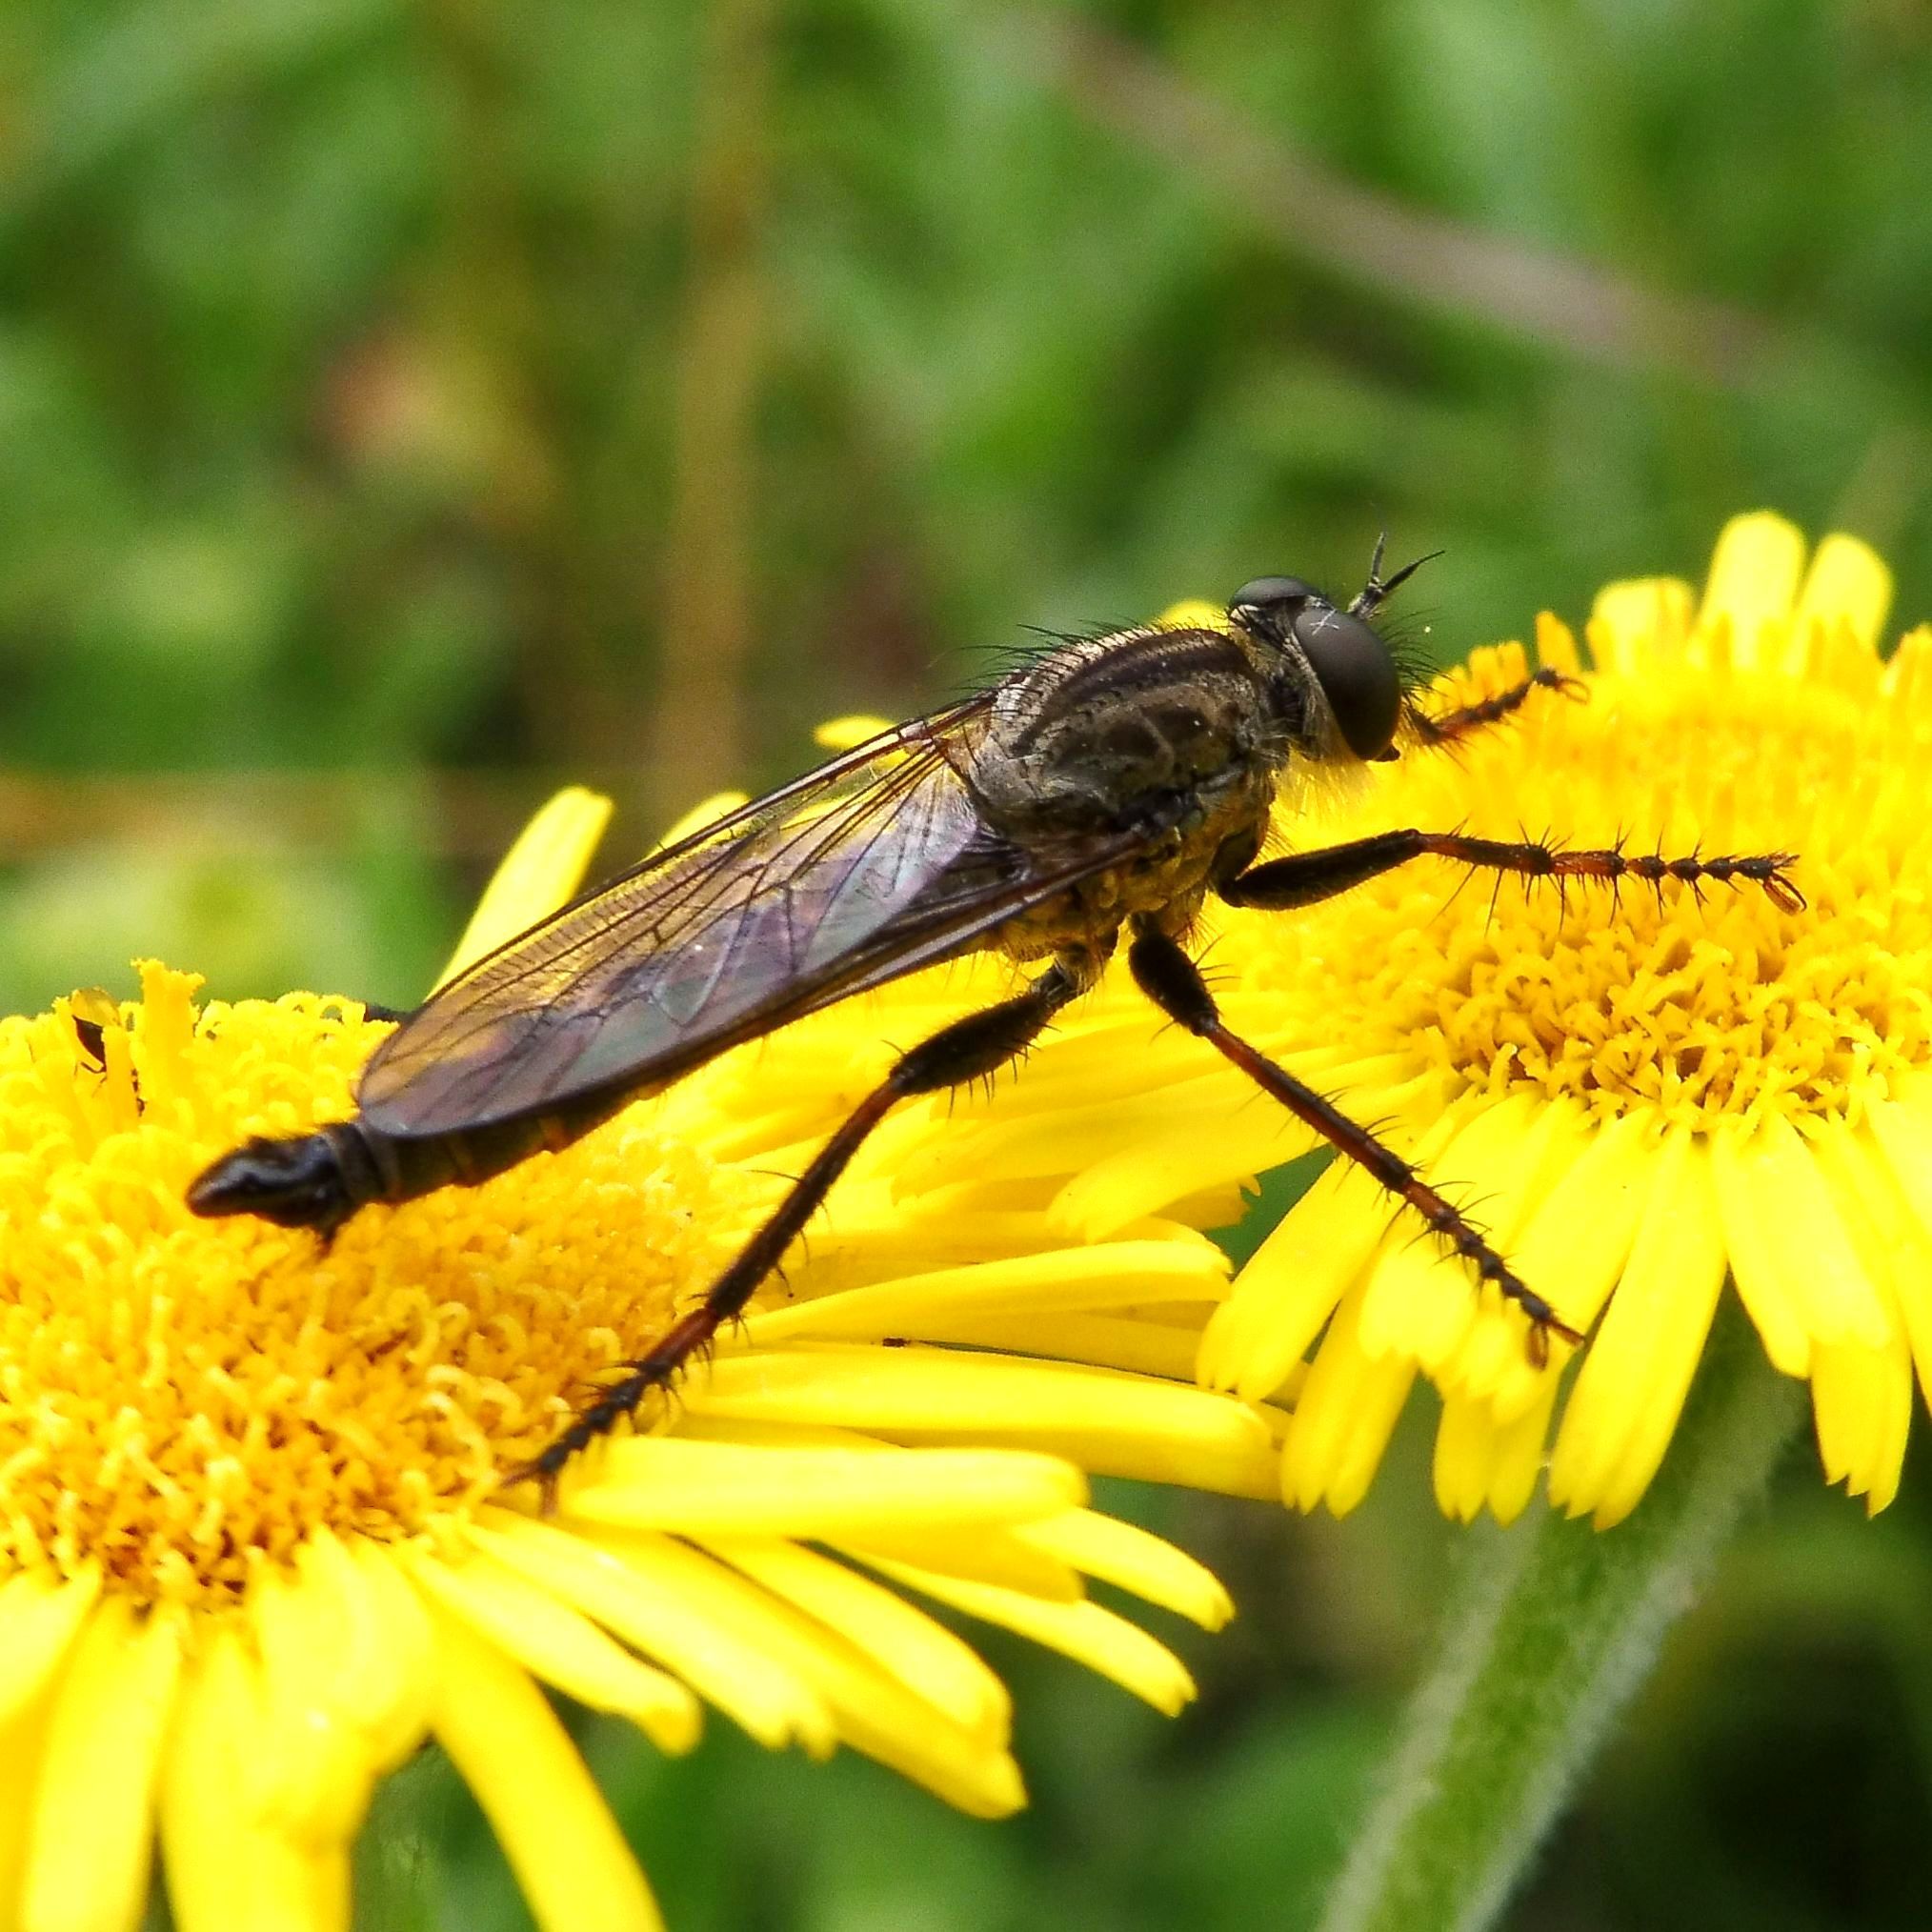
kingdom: Animalia
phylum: Arthropoda
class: Insecta
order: Diptera
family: Asilidae
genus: Machimus
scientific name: Machimus atricapillus
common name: Kite-tailed robberfly
